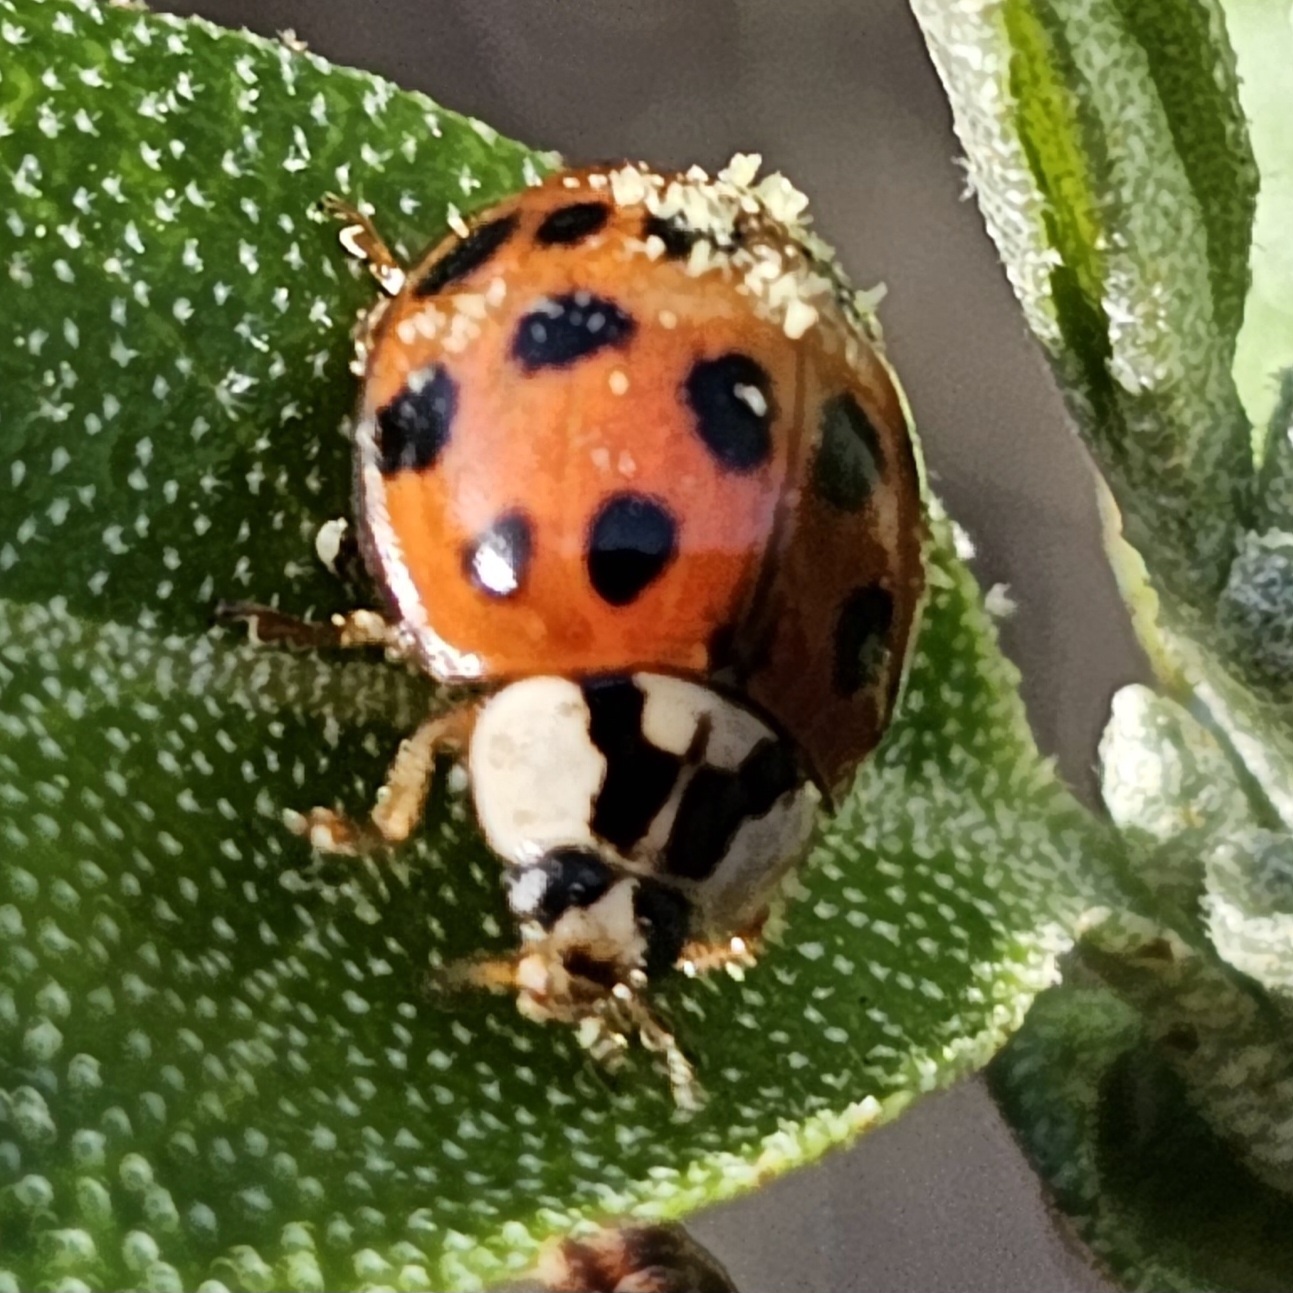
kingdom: Animalia
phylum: Arthropoda
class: Insecta
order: Coleoptera
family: Coccinellidae
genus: Harmonia
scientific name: Harmonia axyridis
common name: Harlequin ladybird
